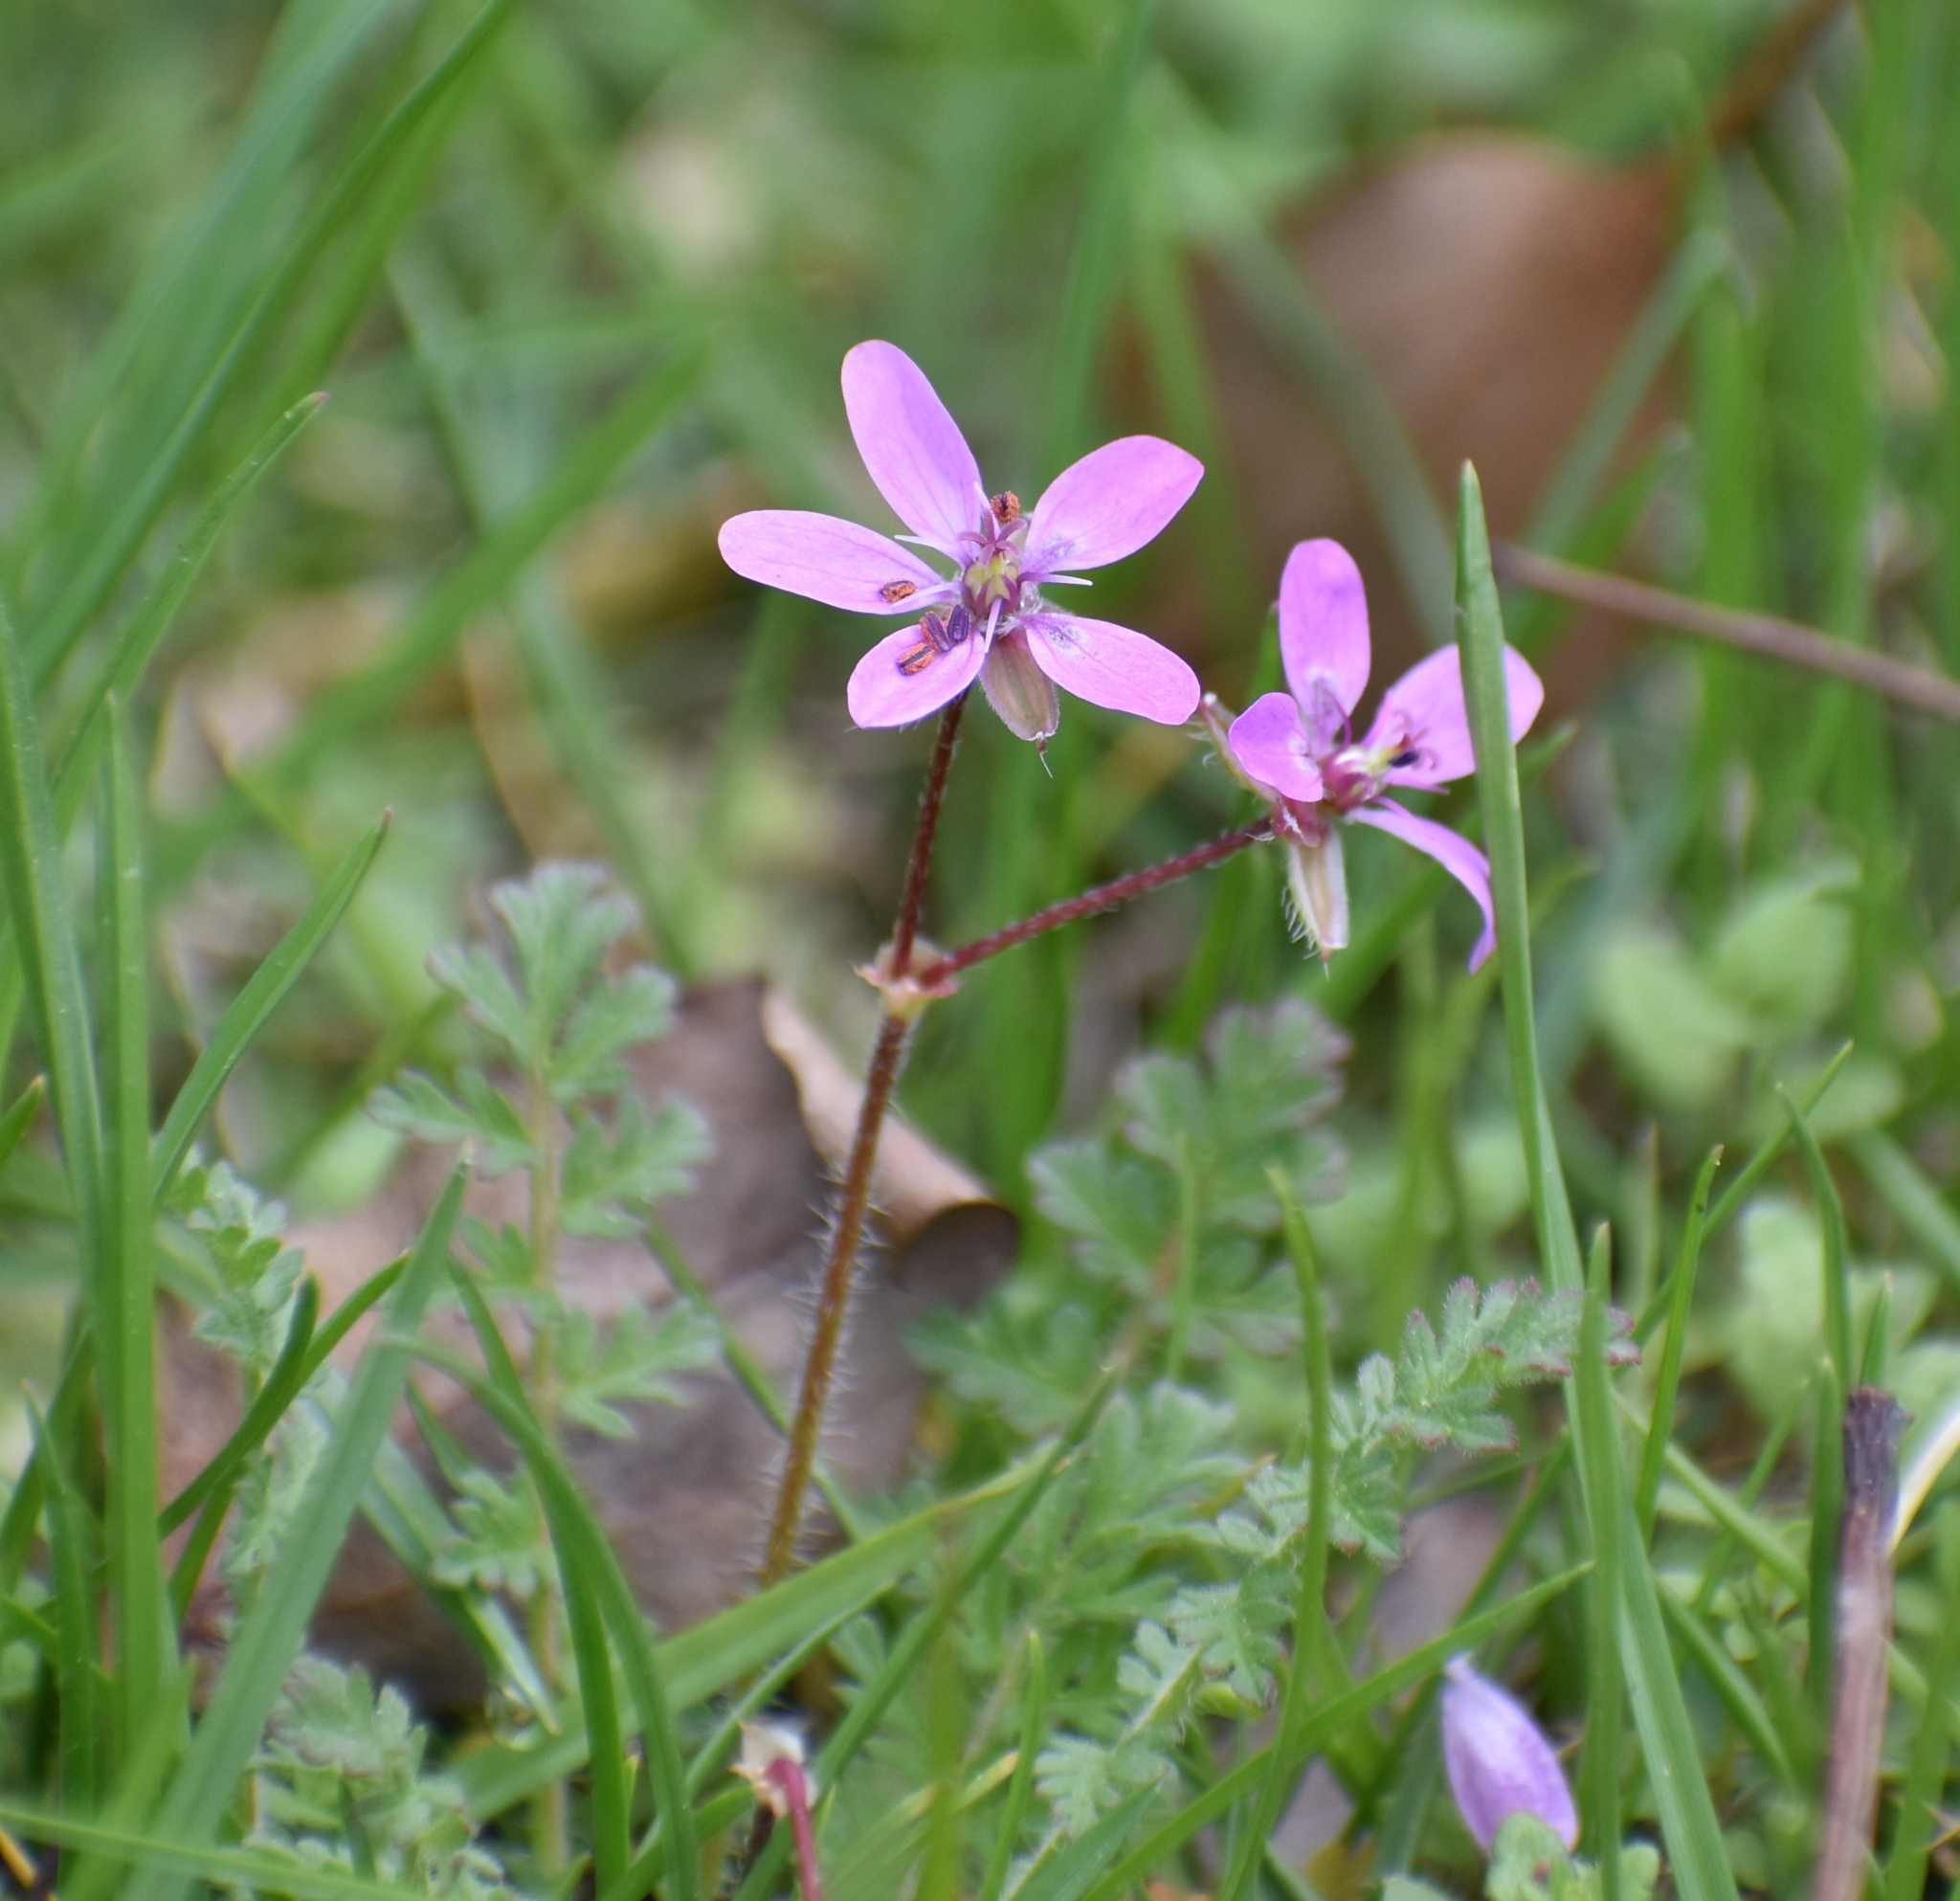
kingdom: Plantae
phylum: Tracheophyta
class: Magnoliopsida
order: Geraniales
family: Geraniaceae
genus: Erodium
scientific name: Erodium cicutarium
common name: Common stork's-bill
